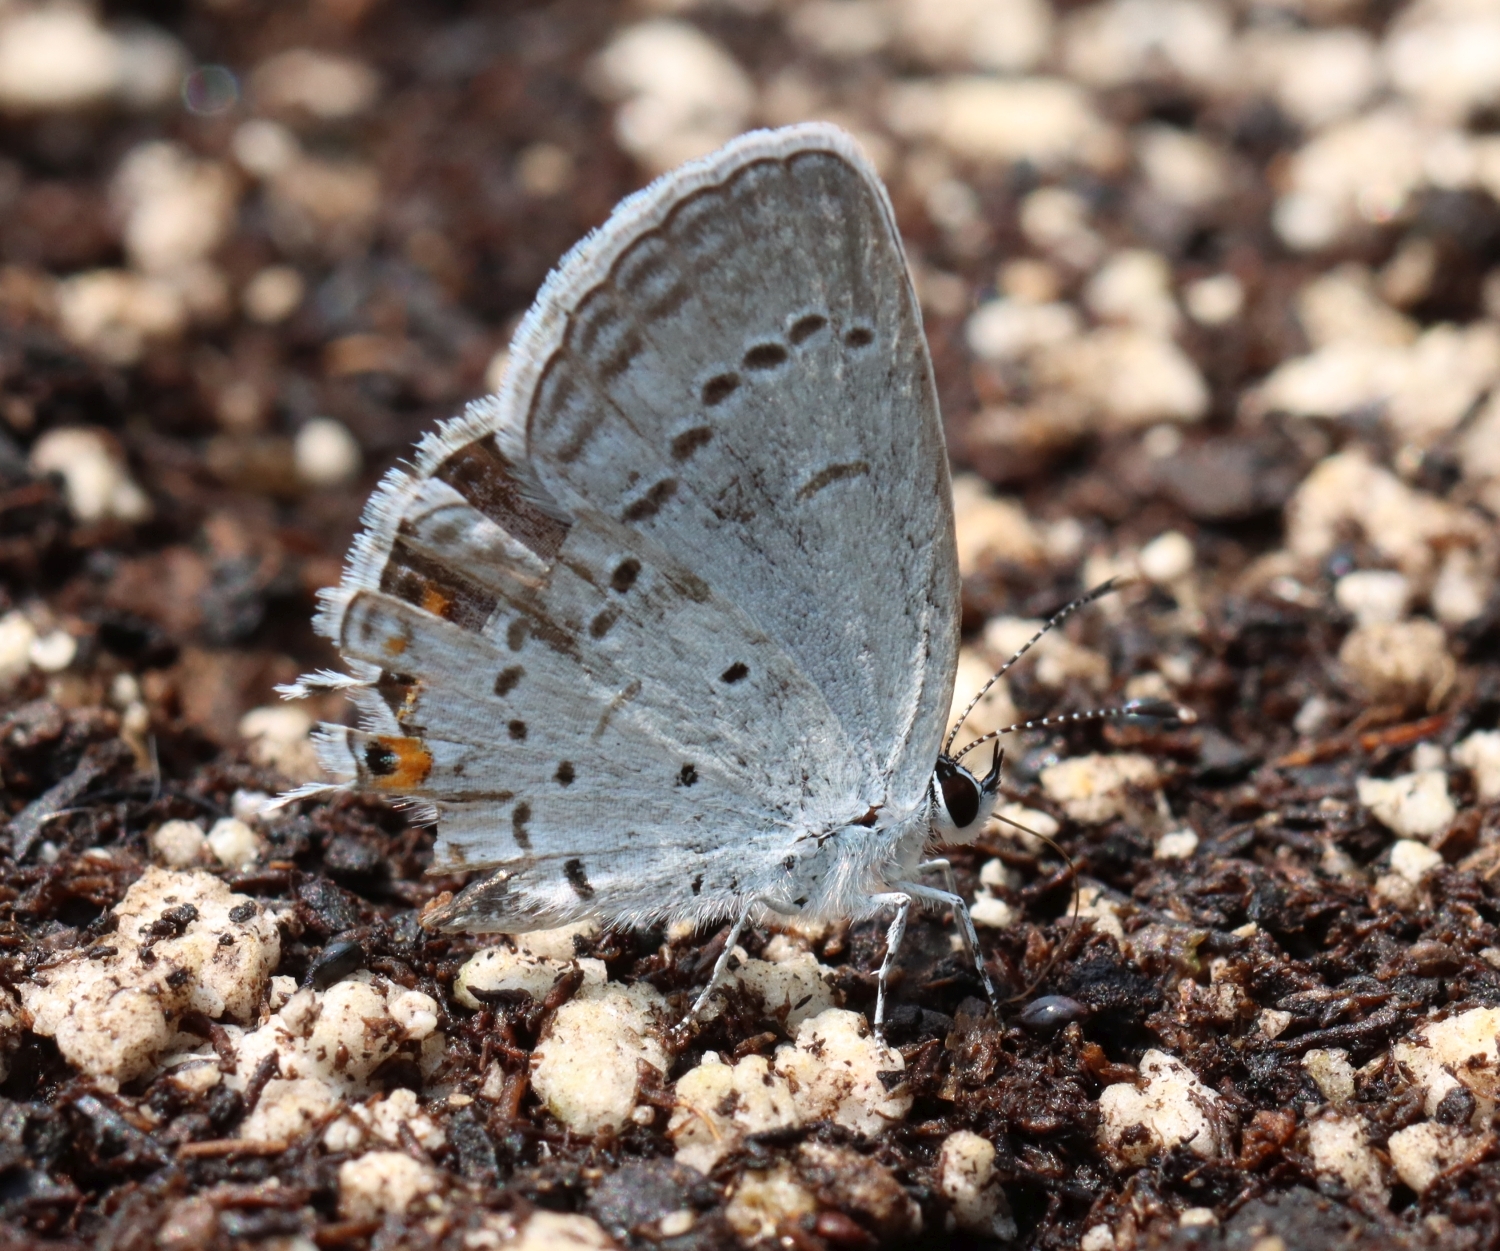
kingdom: Animalia
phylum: Arthropoda
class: Insecta
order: Lepidoptera
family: Lycaenidae
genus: Elkalyce
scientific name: Elkalyce comyntas
